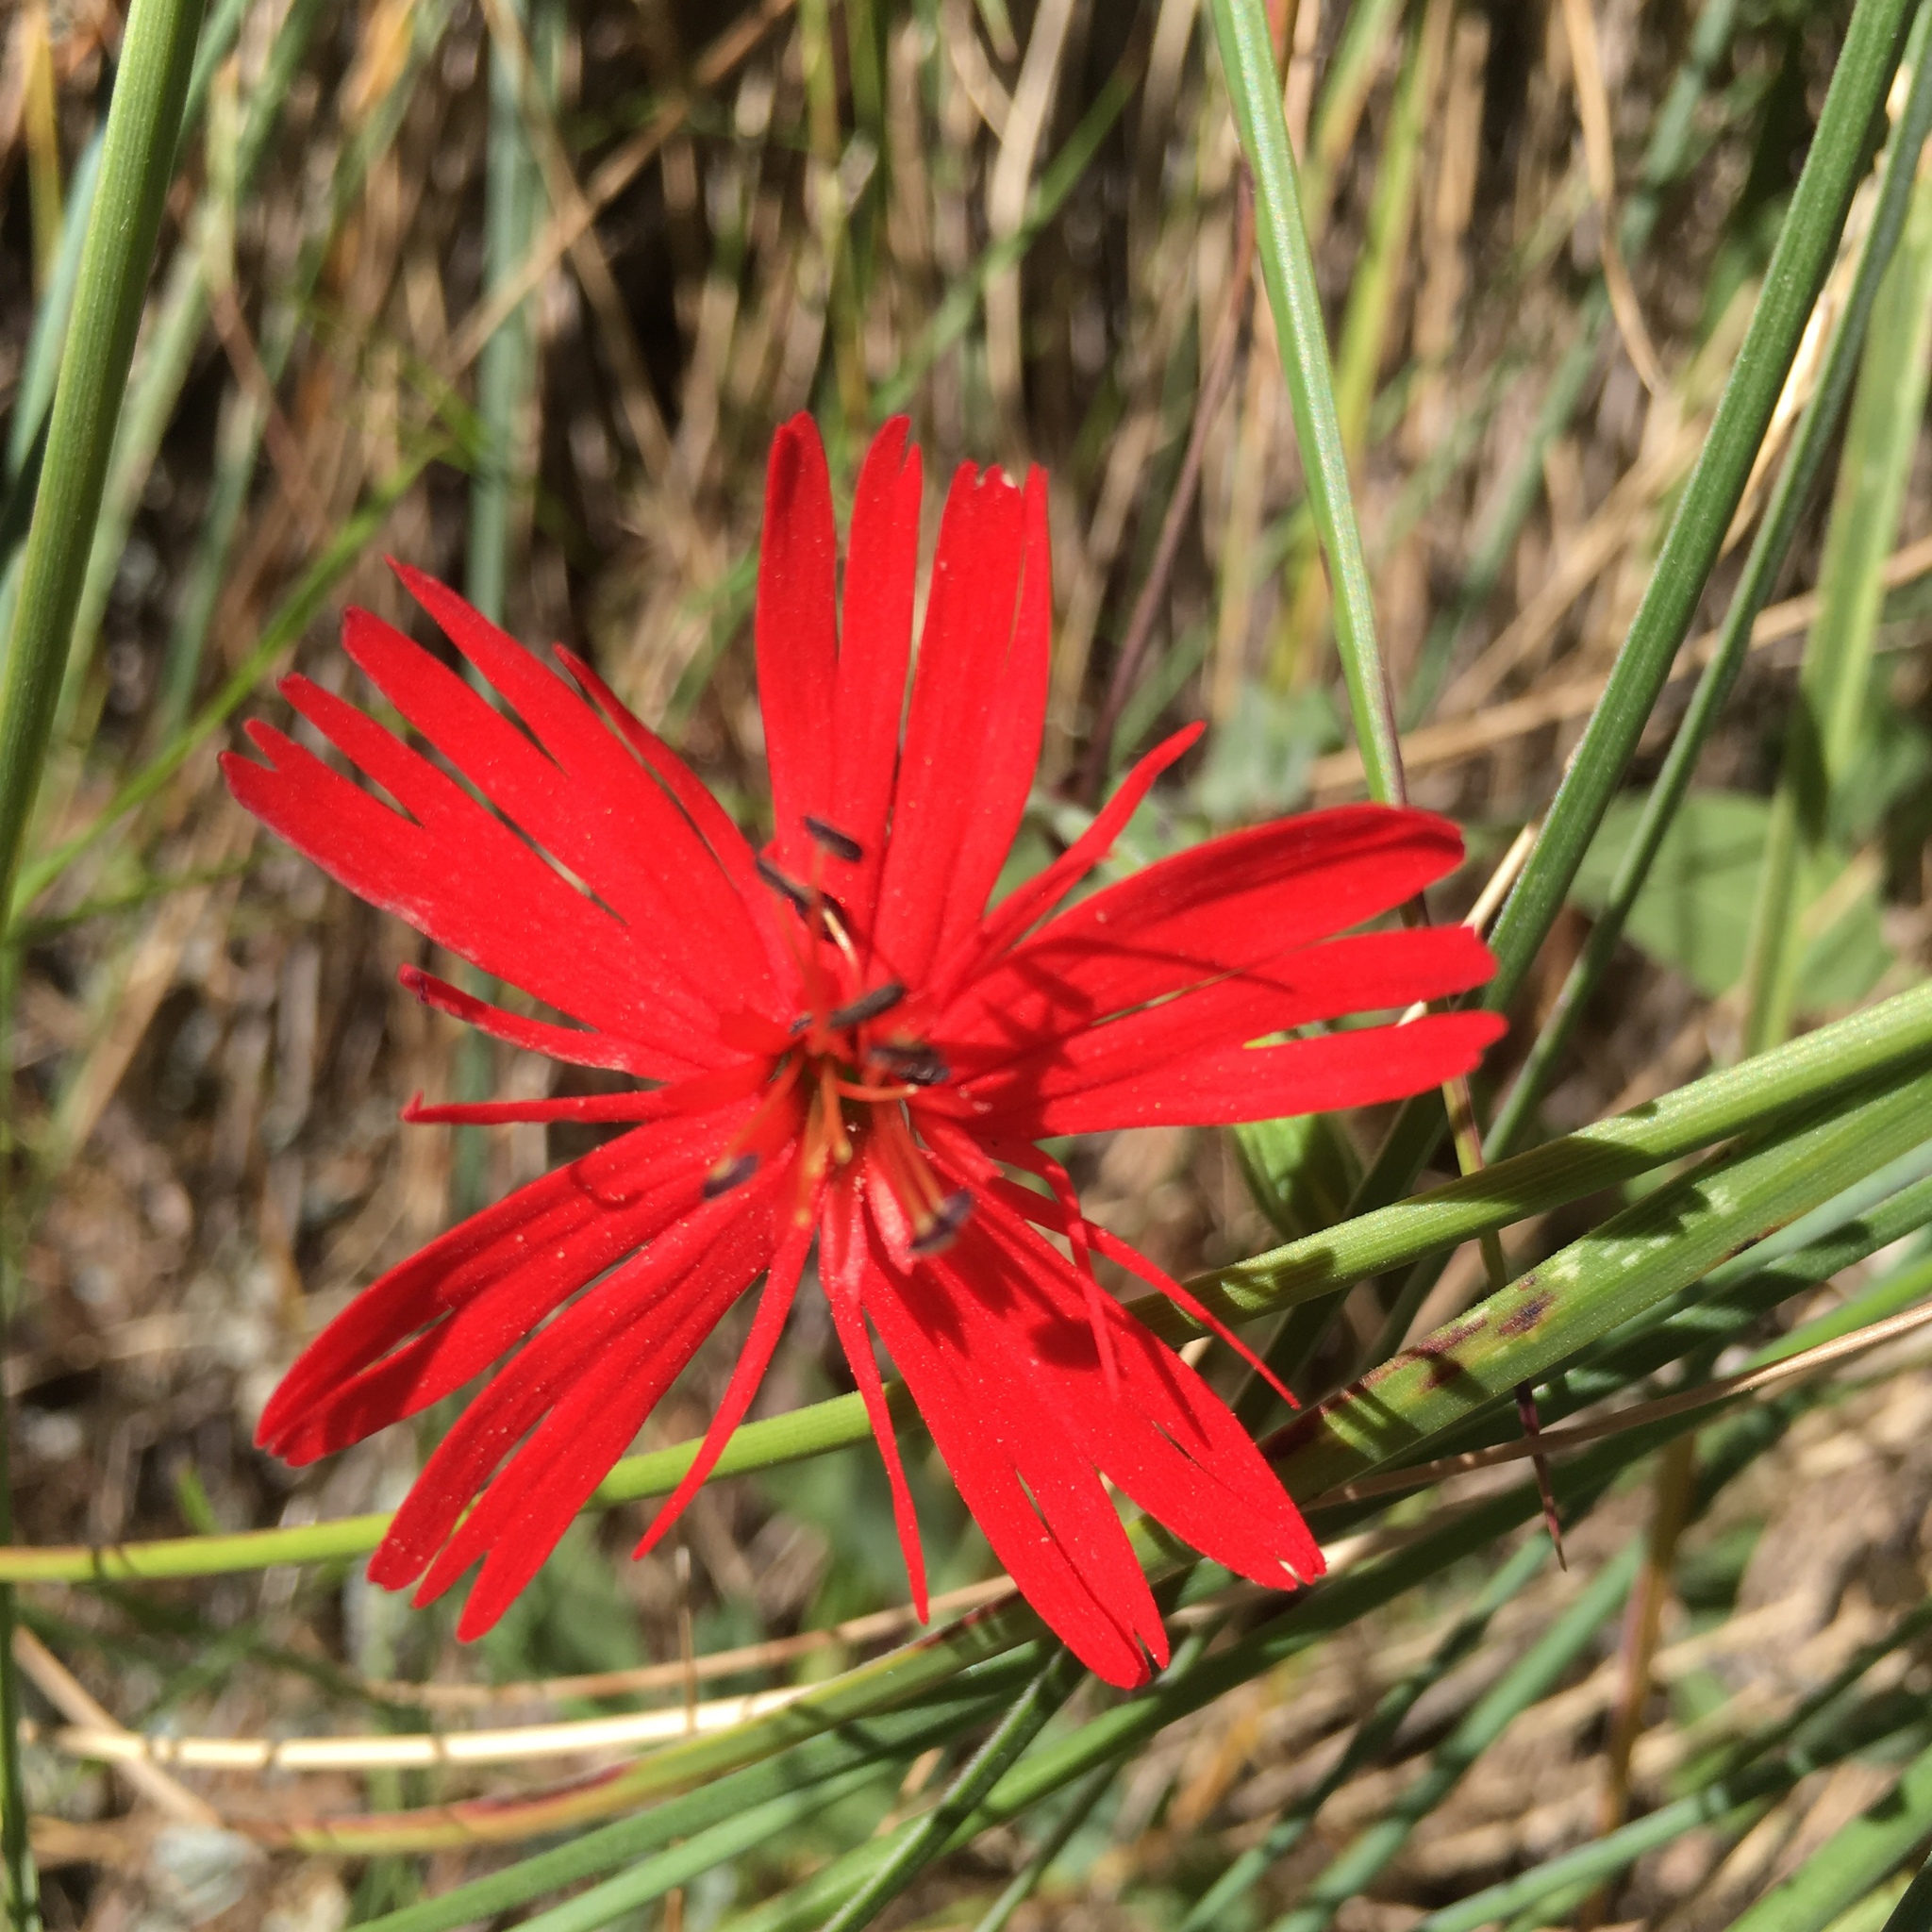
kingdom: Plantae
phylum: Tracheophyta
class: Magnoliopsida
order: Caryophyllales
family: Caryophyllaceae
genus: Silene
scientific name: Silene laciniata
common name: Indian-pink
